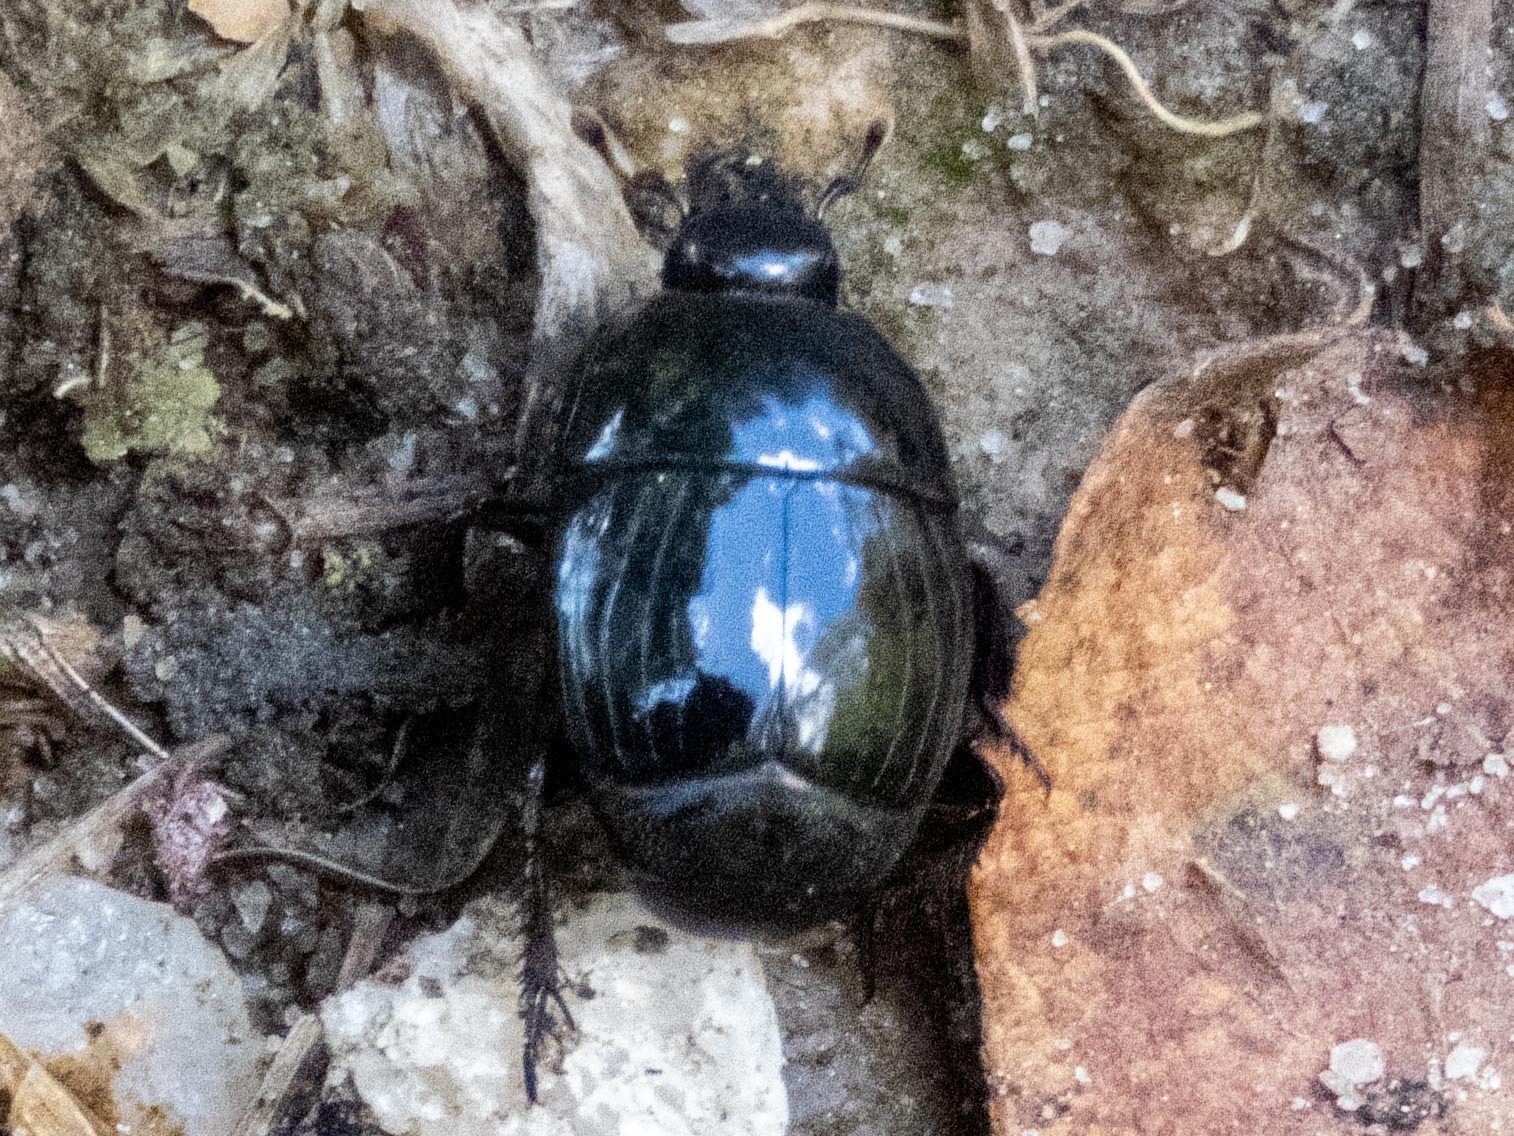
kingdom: Animalia
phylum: Arthropoda
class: Insecta
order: Coleoptera
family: Histeridae
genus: Hister
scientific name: Hister quadrimaculatus
